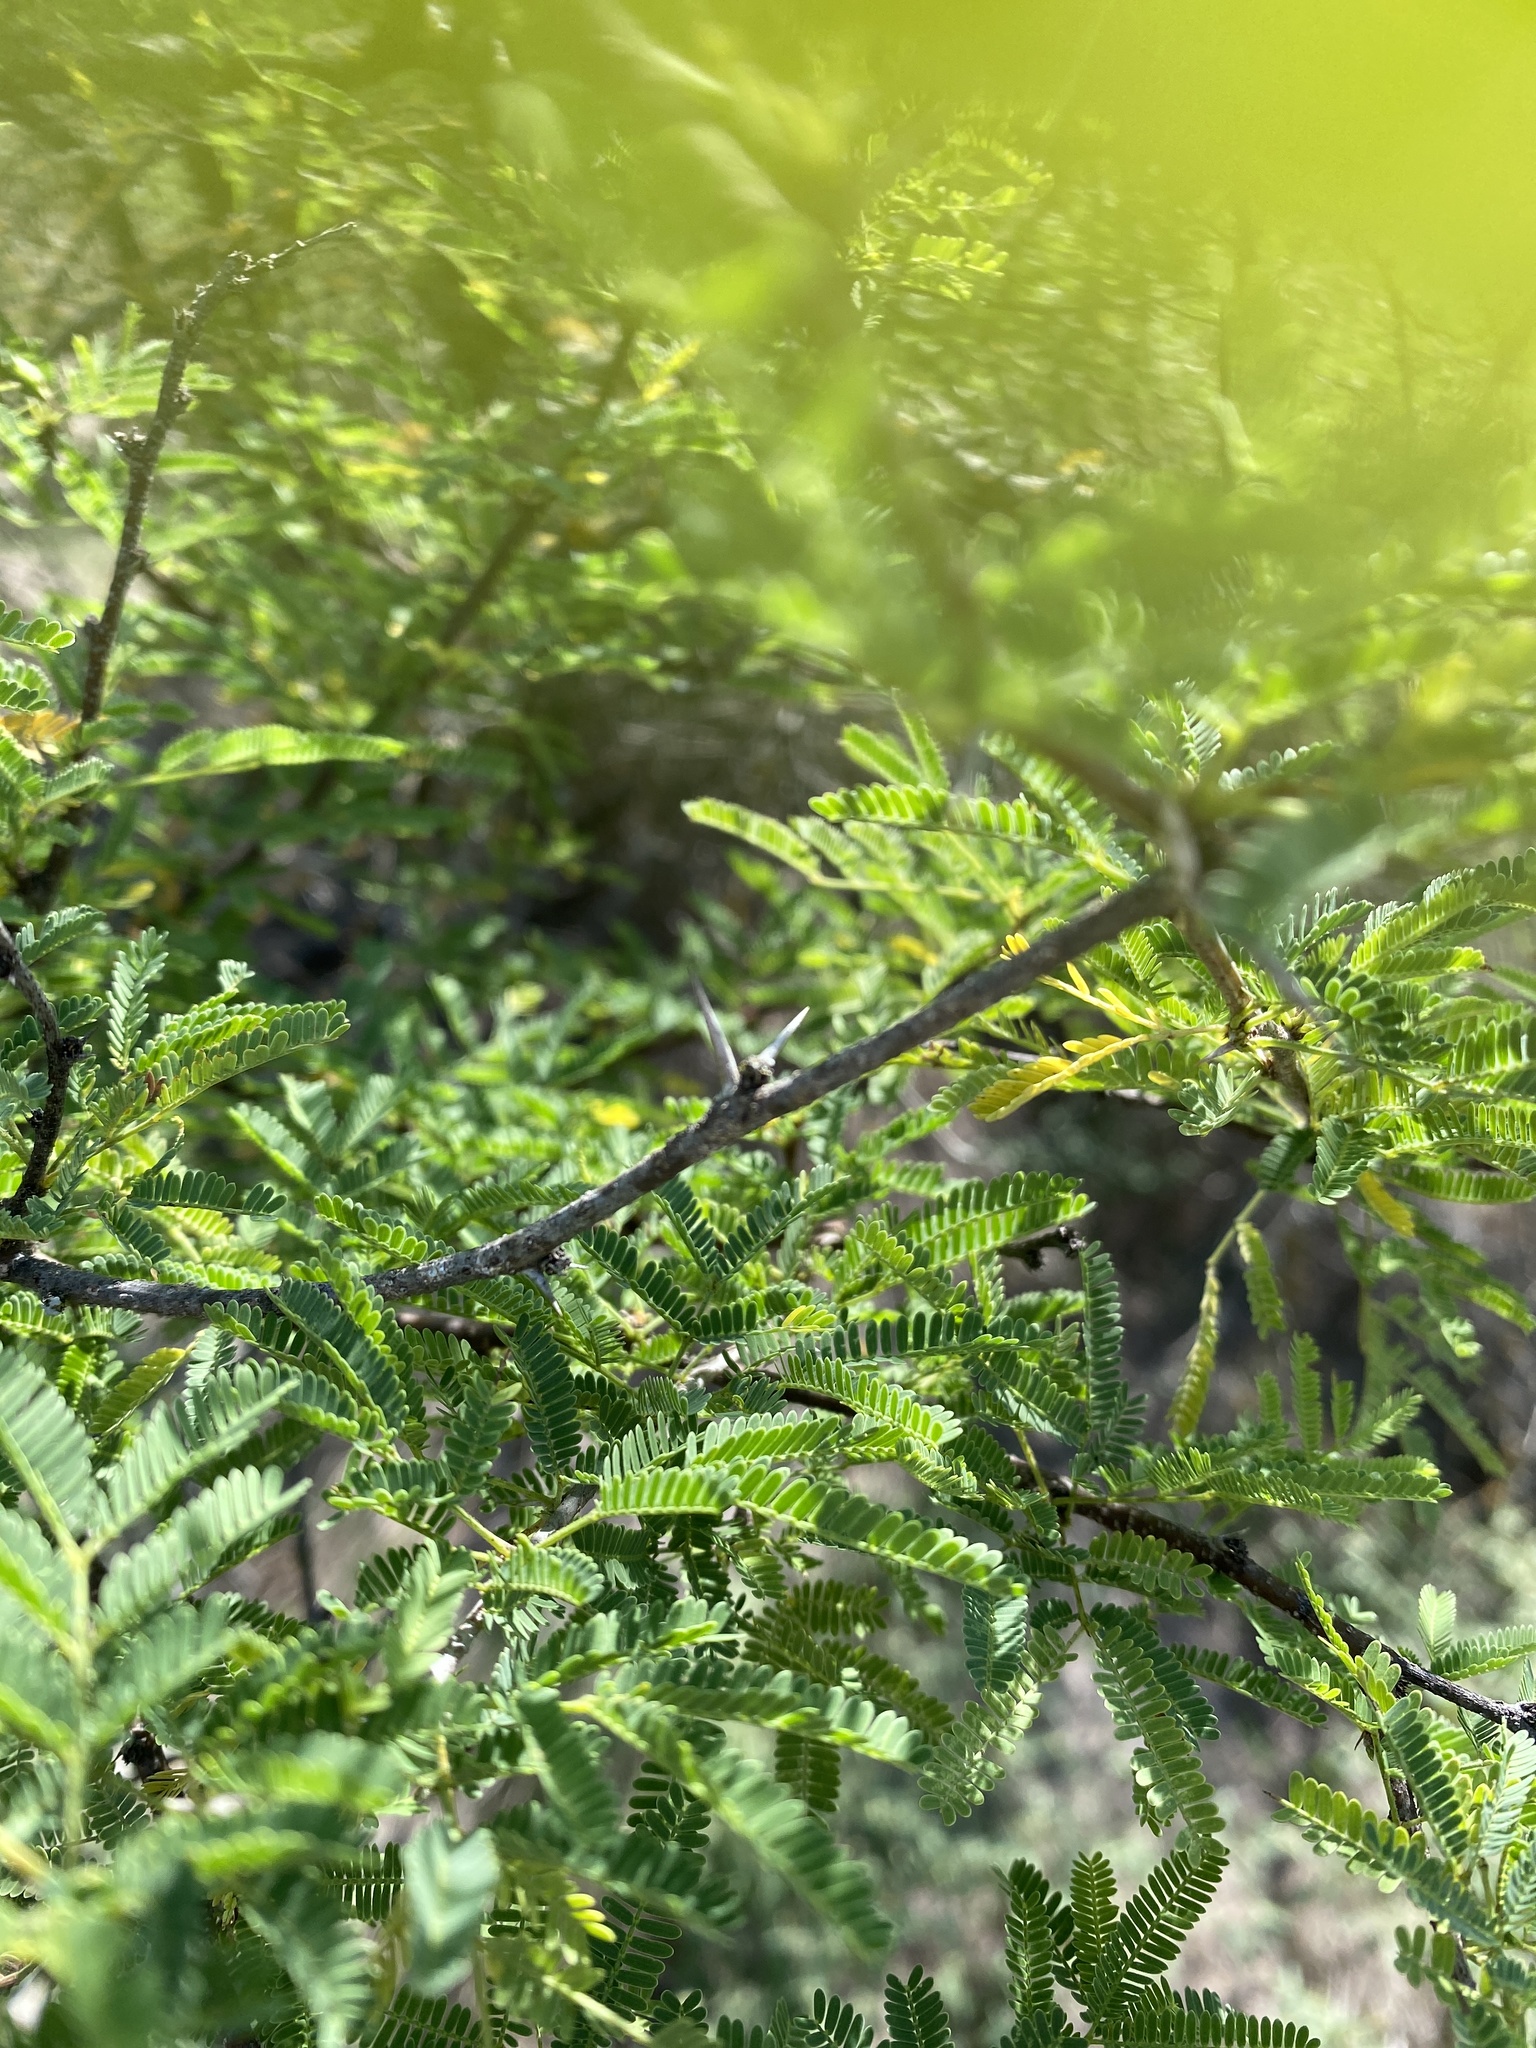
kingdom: Plantae
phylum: Tracheophyta
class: Magnoliopsida
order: Fabales
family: Fabaceae
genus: Vachellia
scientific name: Vachellia farnesiana
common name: Sweet acacia
